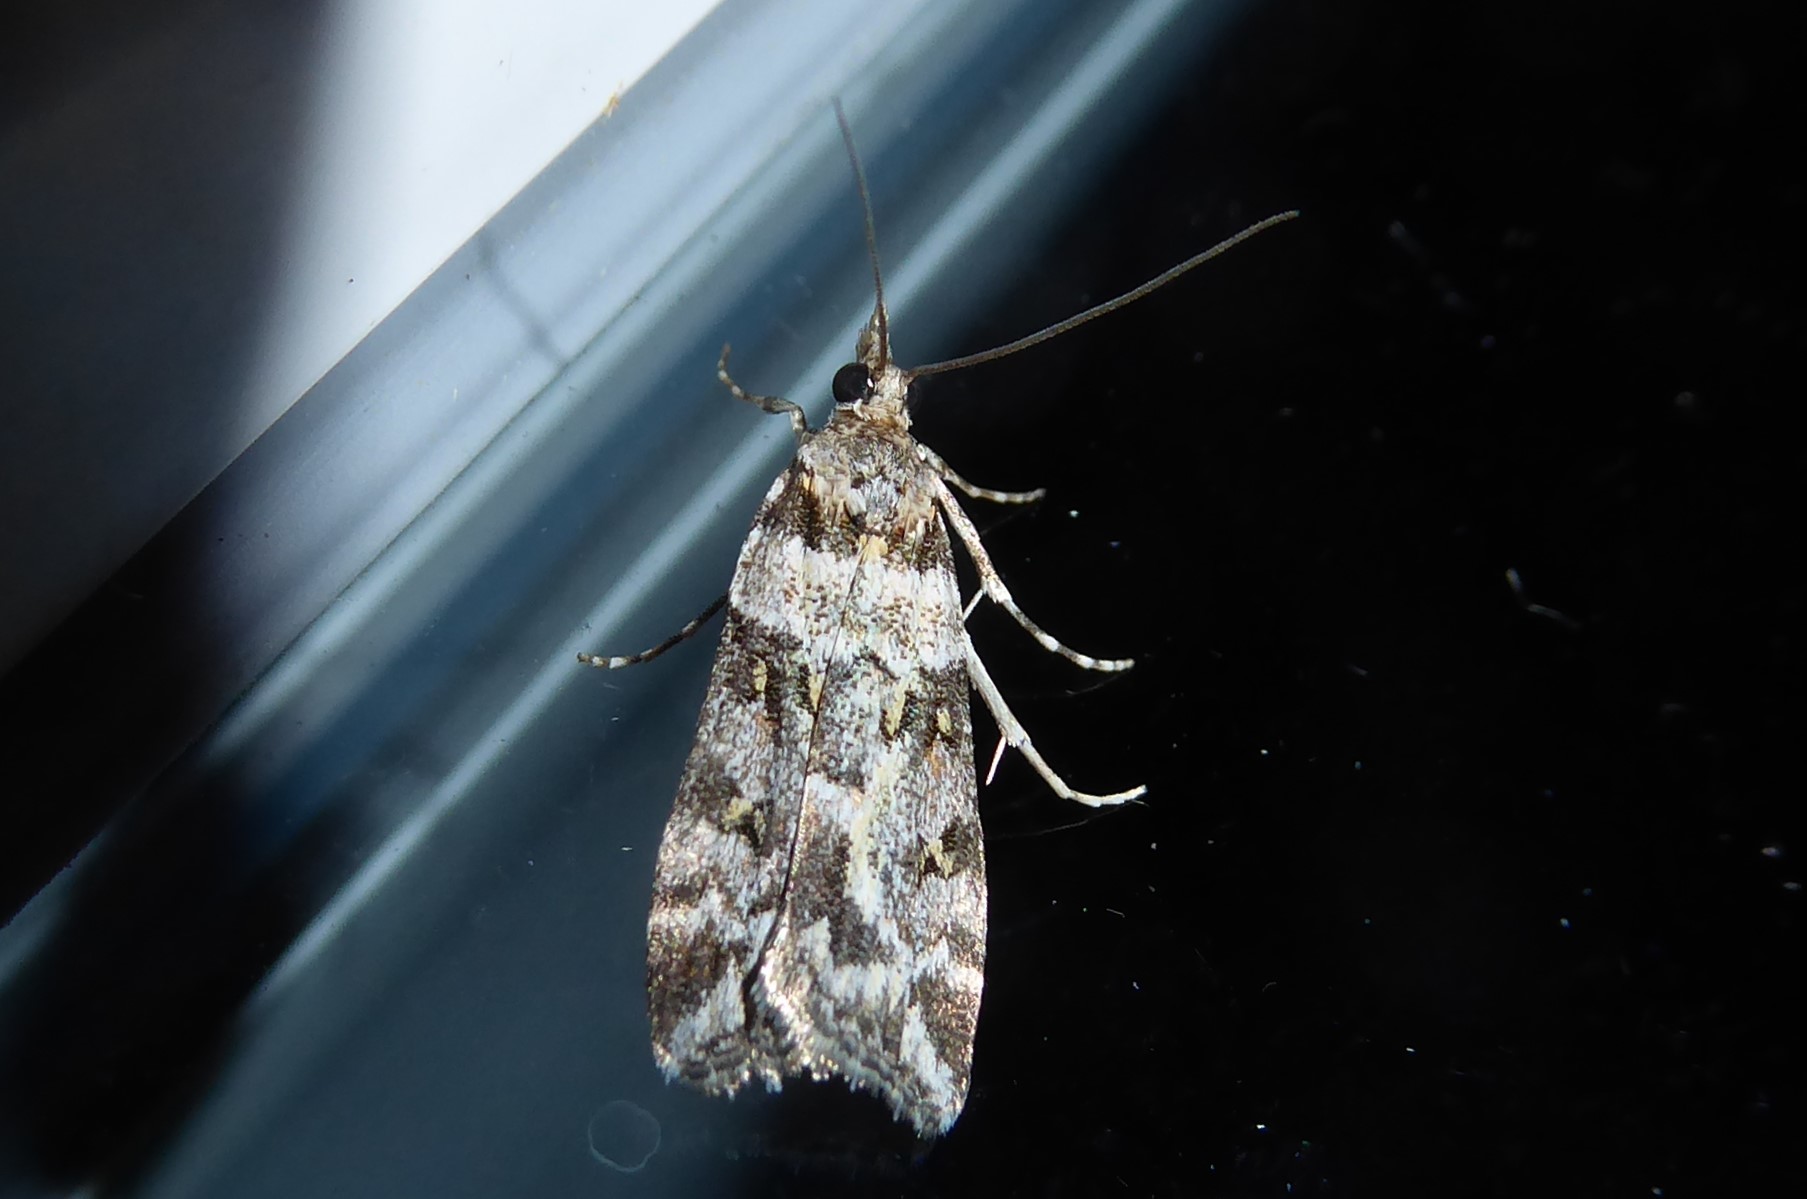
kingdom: Animalia
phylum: Arthropoda
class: Insecta
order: Lepidoptera
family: Crambidae
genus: Eudonia
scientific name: Eudonia diphtheralis
